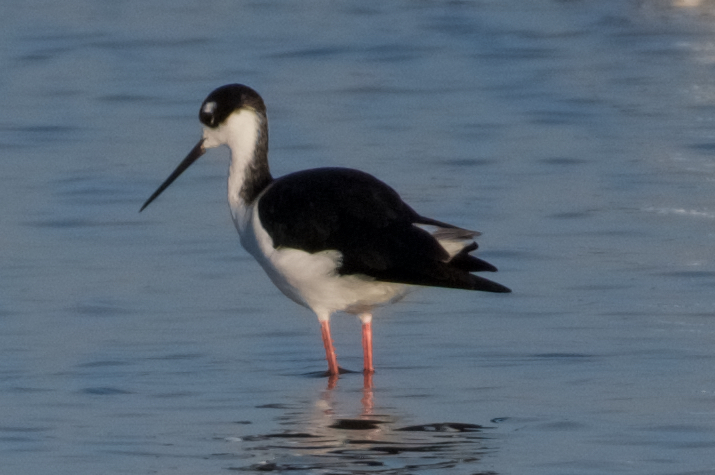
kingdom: Animalia
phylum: Chordata
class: Aves
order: Charadriiformes
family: Recurvirostridae
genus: Himantopus
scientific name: Himantopus mexicanus
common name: Black-necked stilt
